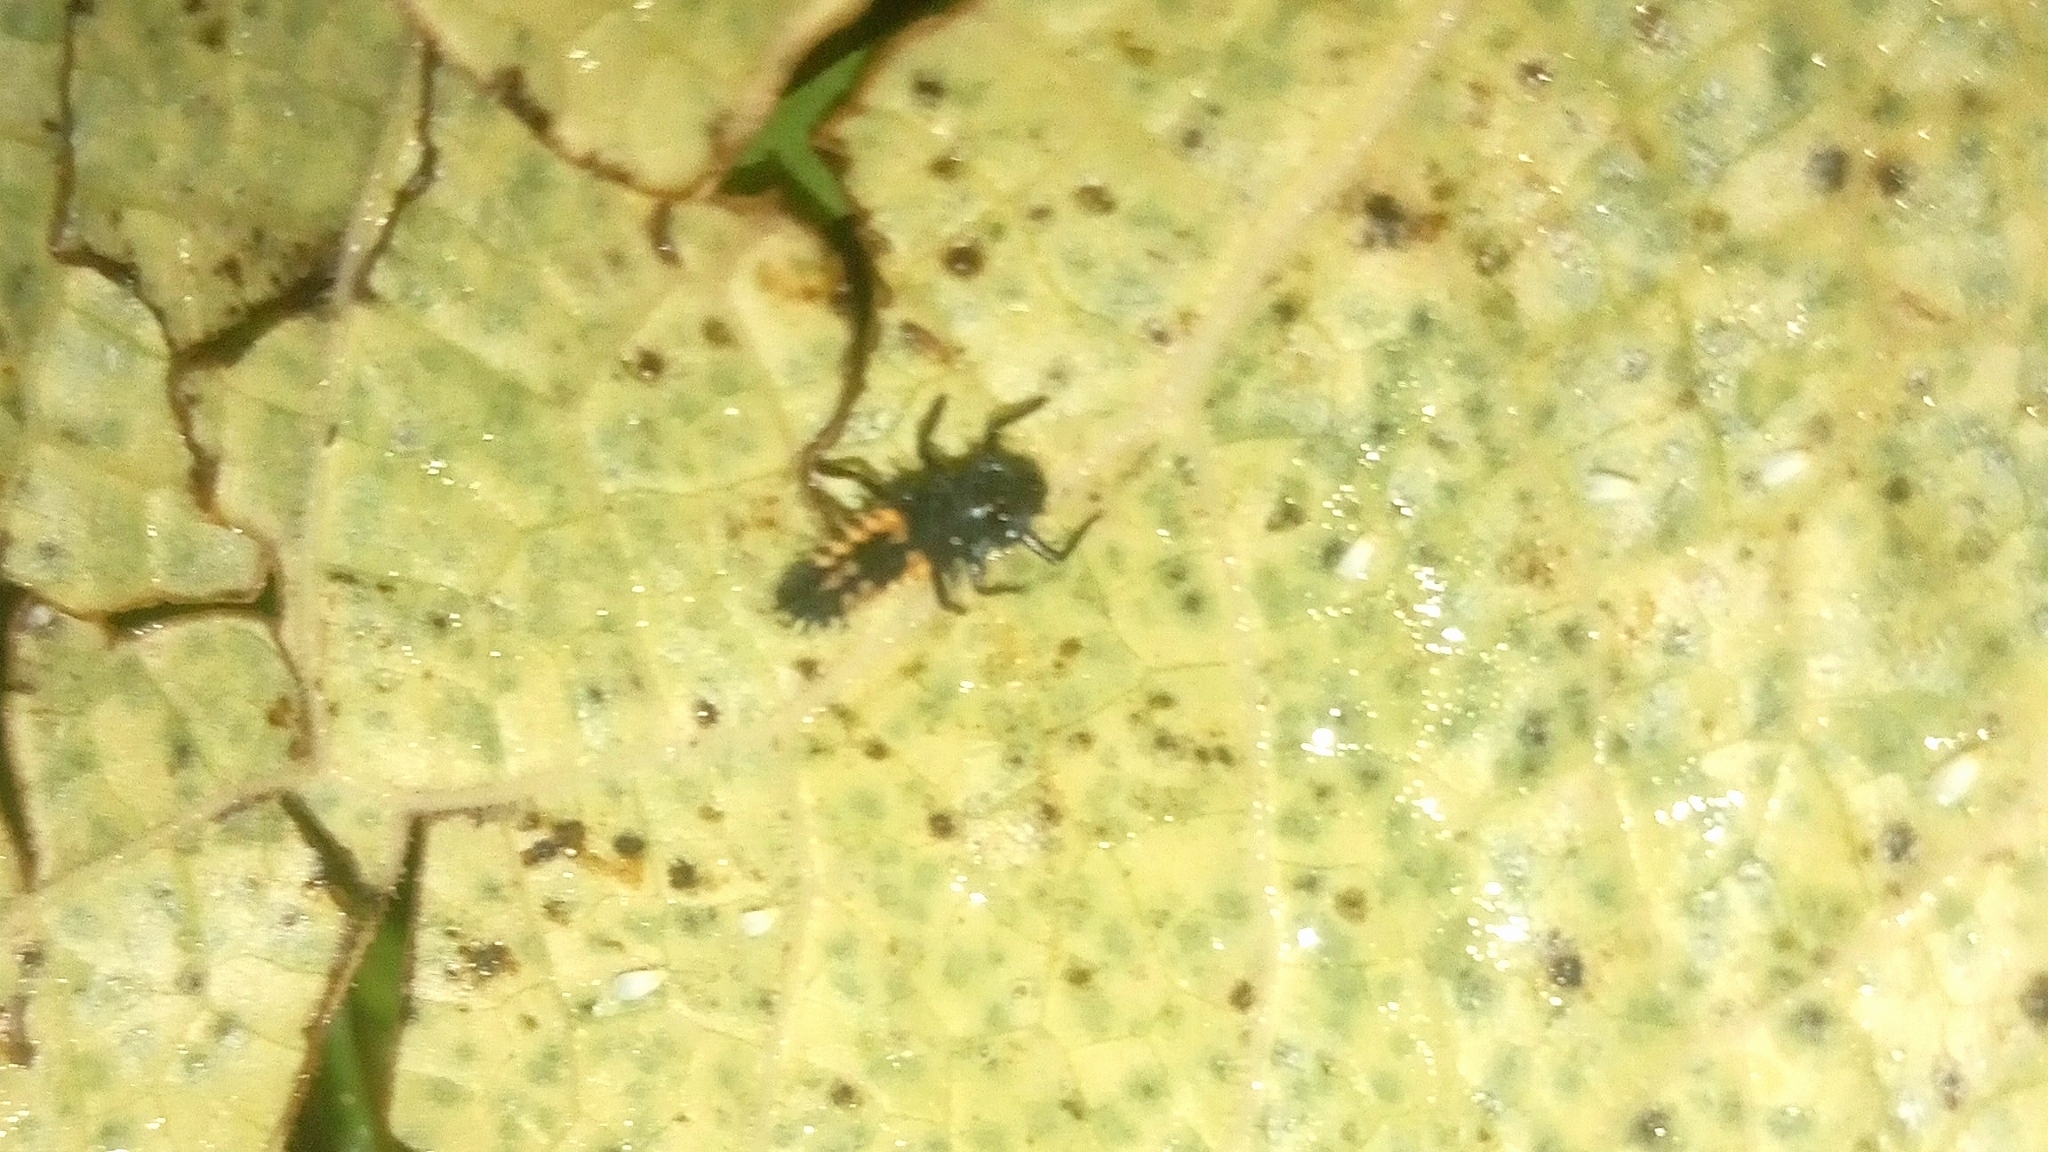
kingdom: Animalia
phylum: Arthropoda
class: Insecta
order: Coleoptera
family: Coccinellidae
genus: Harmonia
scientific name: Harmonia axyridis
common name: Harlequin ladybird
